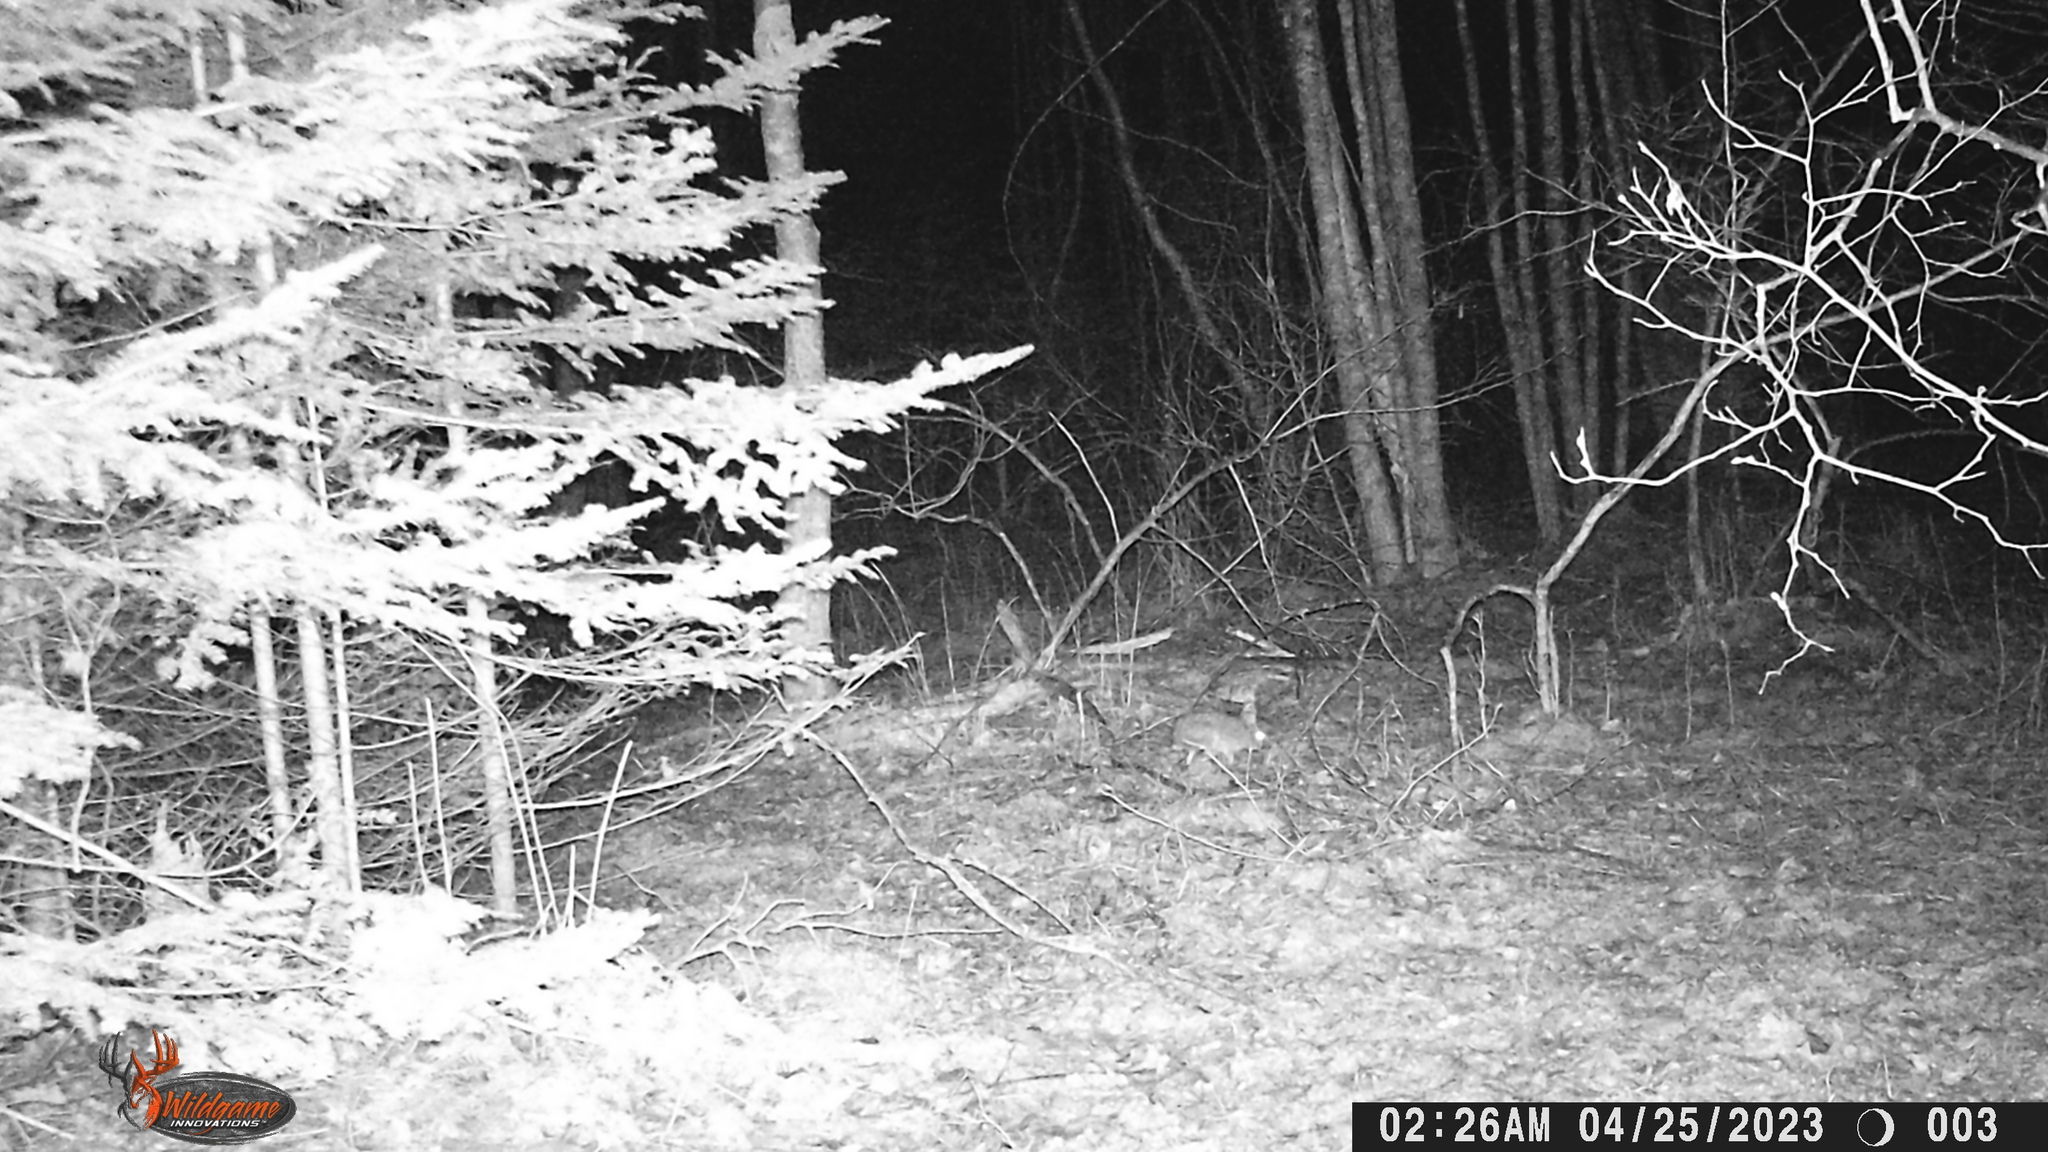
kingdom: Animalia
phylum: Chordata
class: Mammalia
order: Lagomorpha
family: Leporidae
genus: Lepus
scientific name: Lepus americanus
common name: Snowshoe hare
